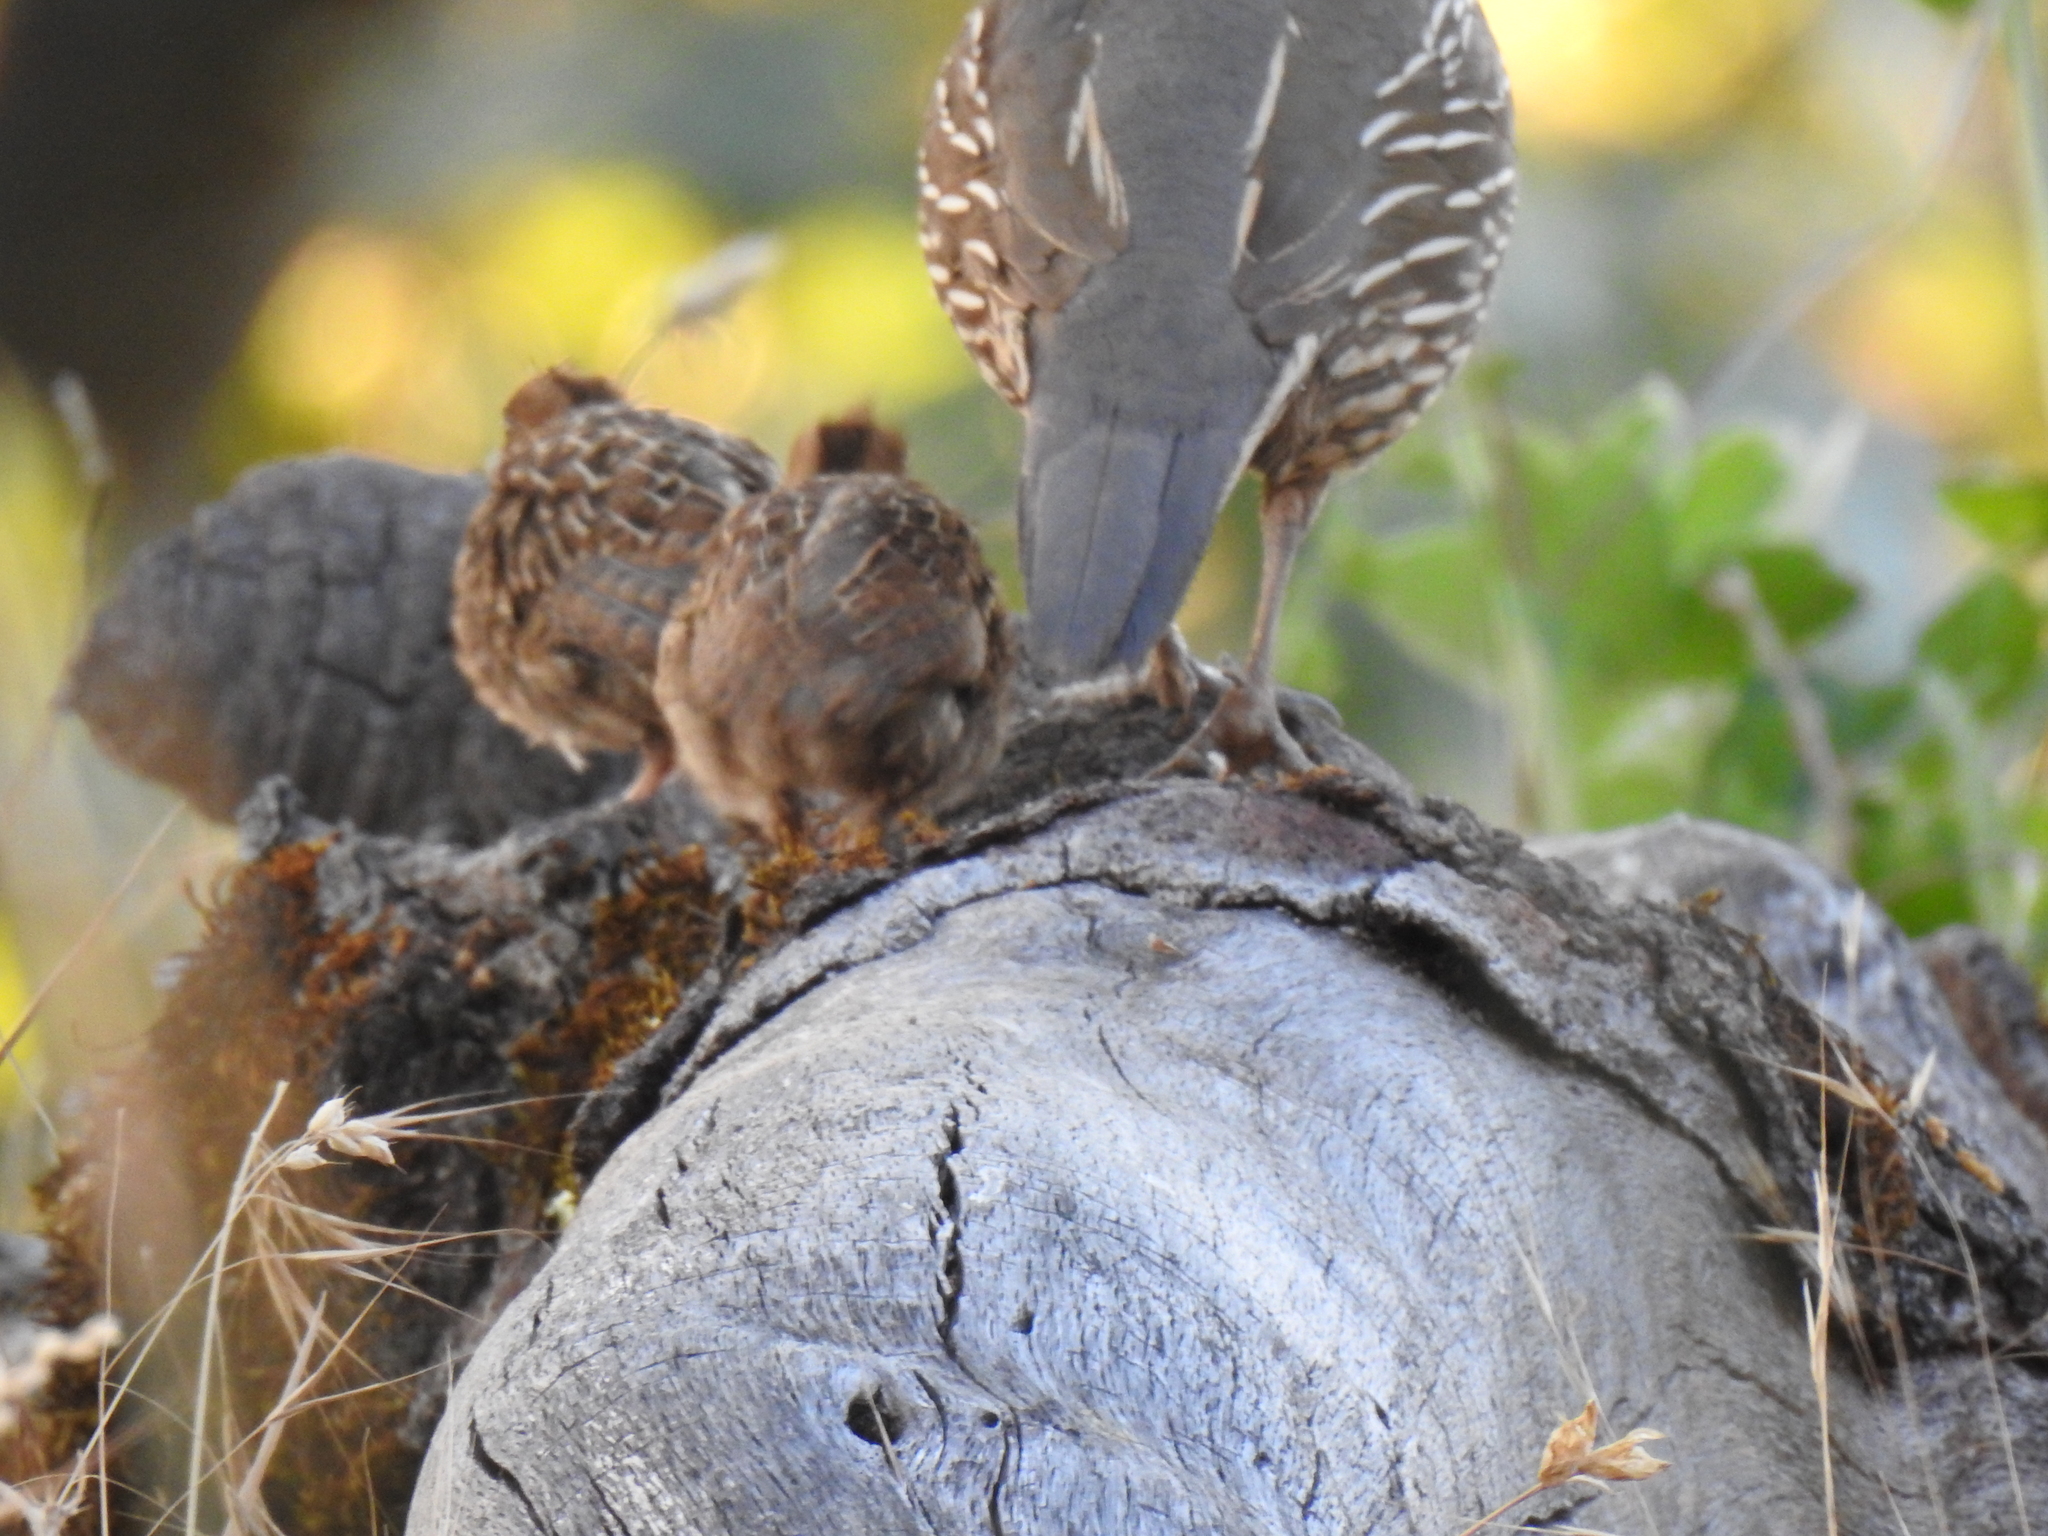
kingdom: Animalia
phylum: Chordata
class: Aves
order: Galliformes
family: Odontophoridae
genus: Callipepla
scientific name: Callipepla californica
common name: California quail
